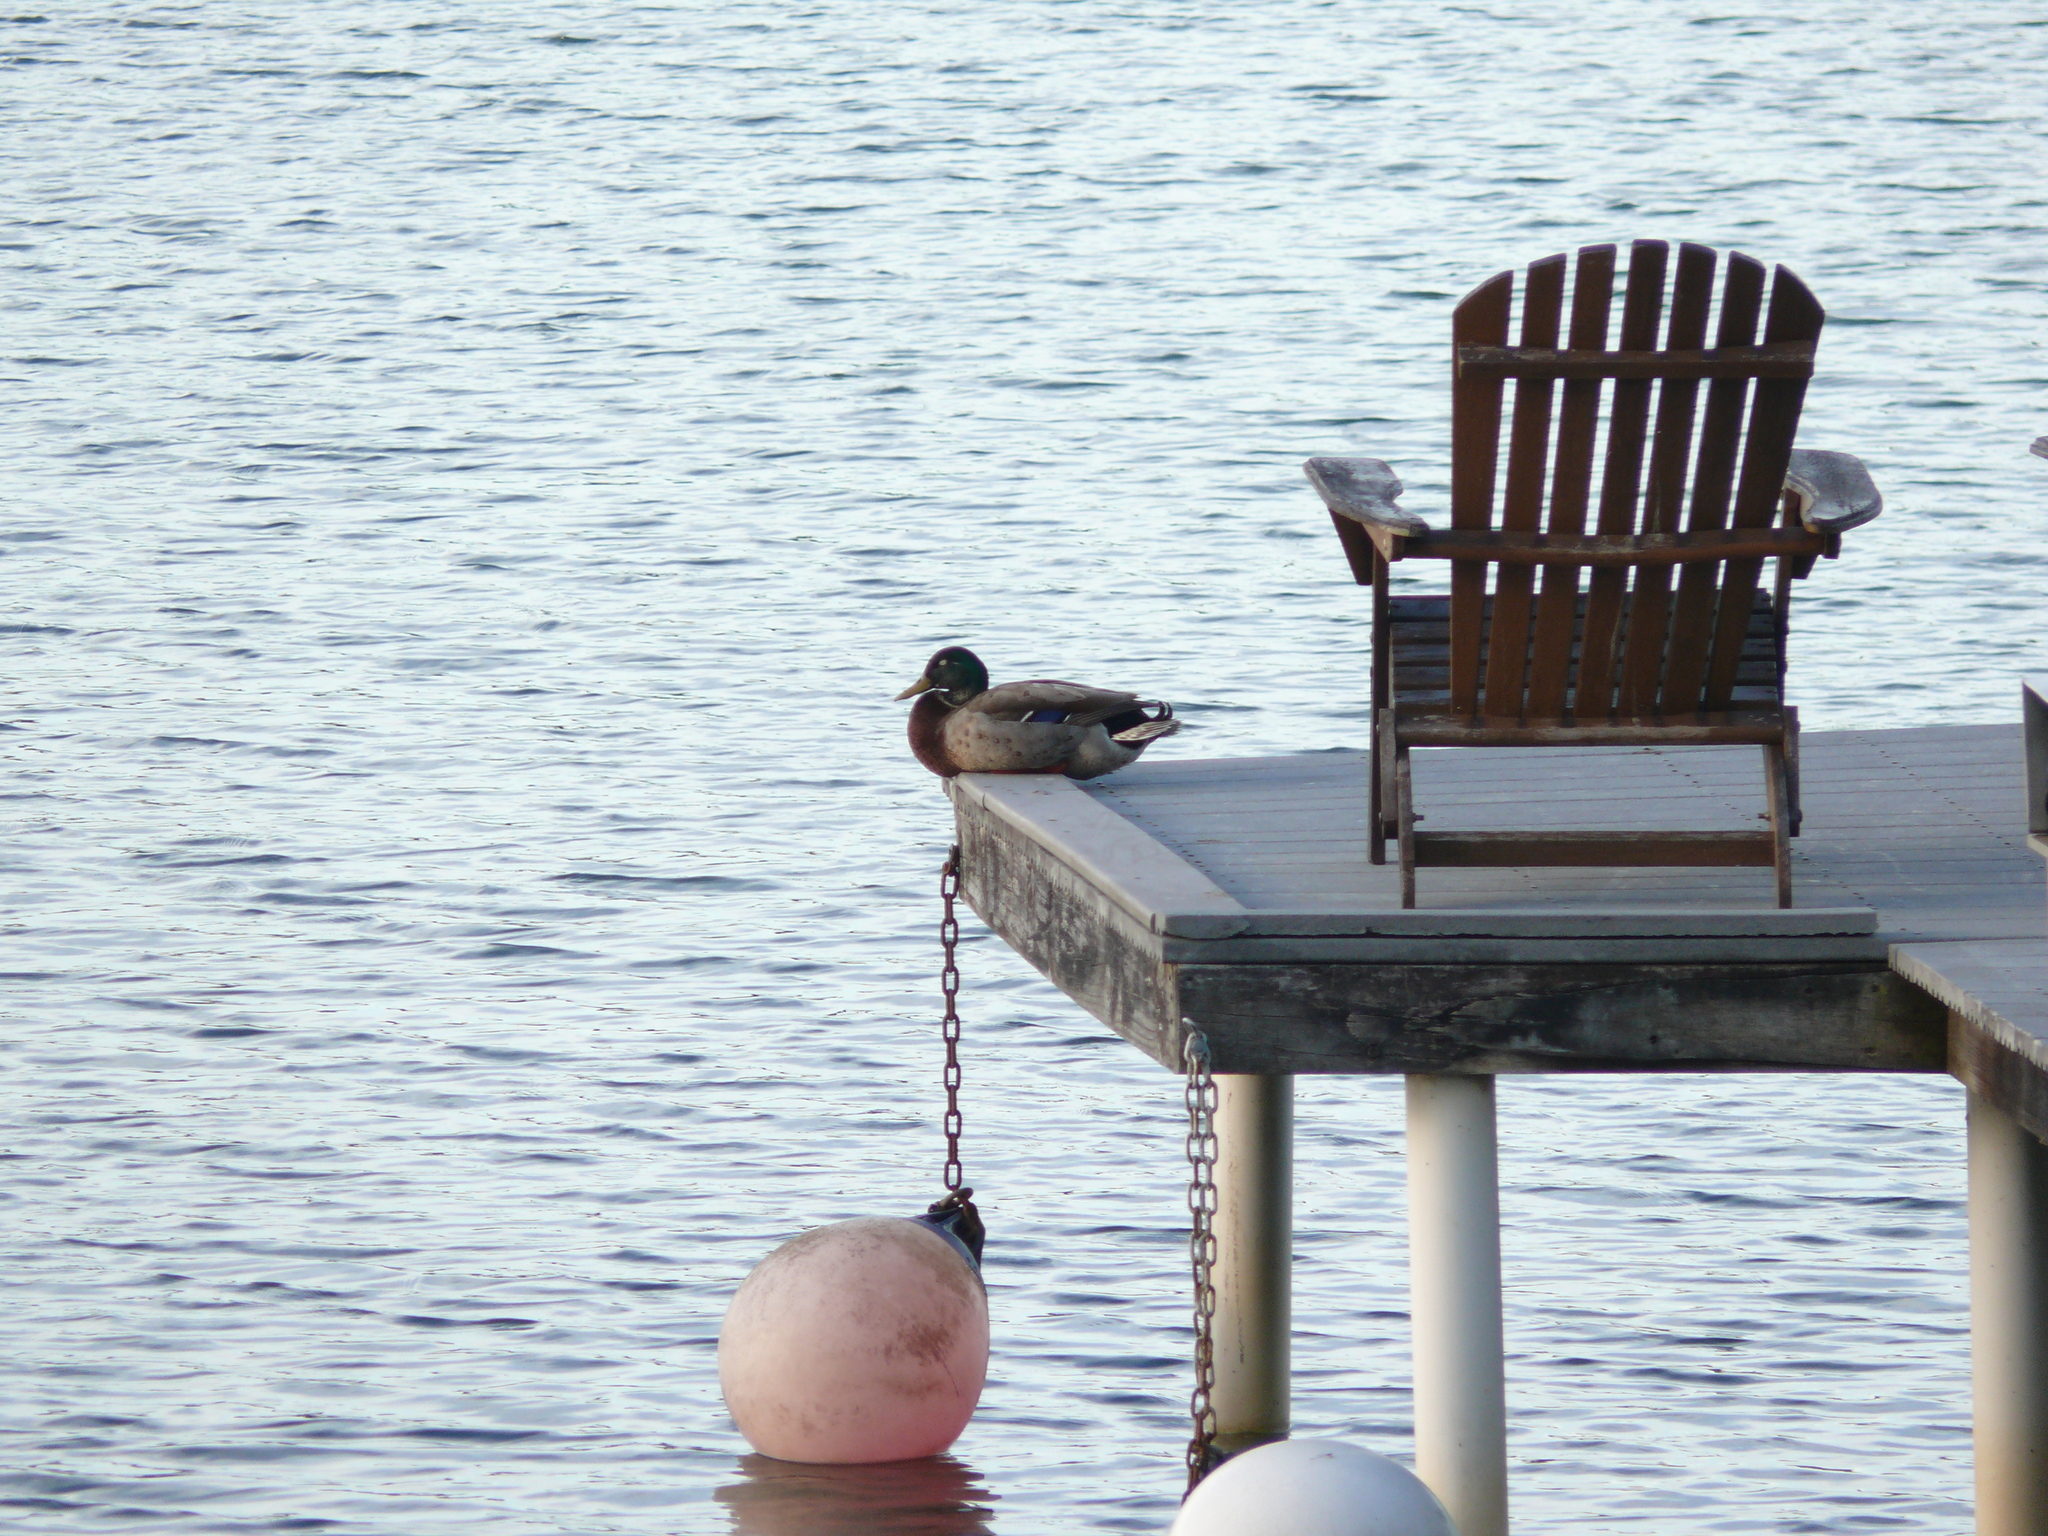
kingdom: Animalia
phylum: Chordata
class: Aves
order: Anseriformes
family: Anatidae
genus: Anas
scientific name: Anas platyrhynchos
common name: Mallard
